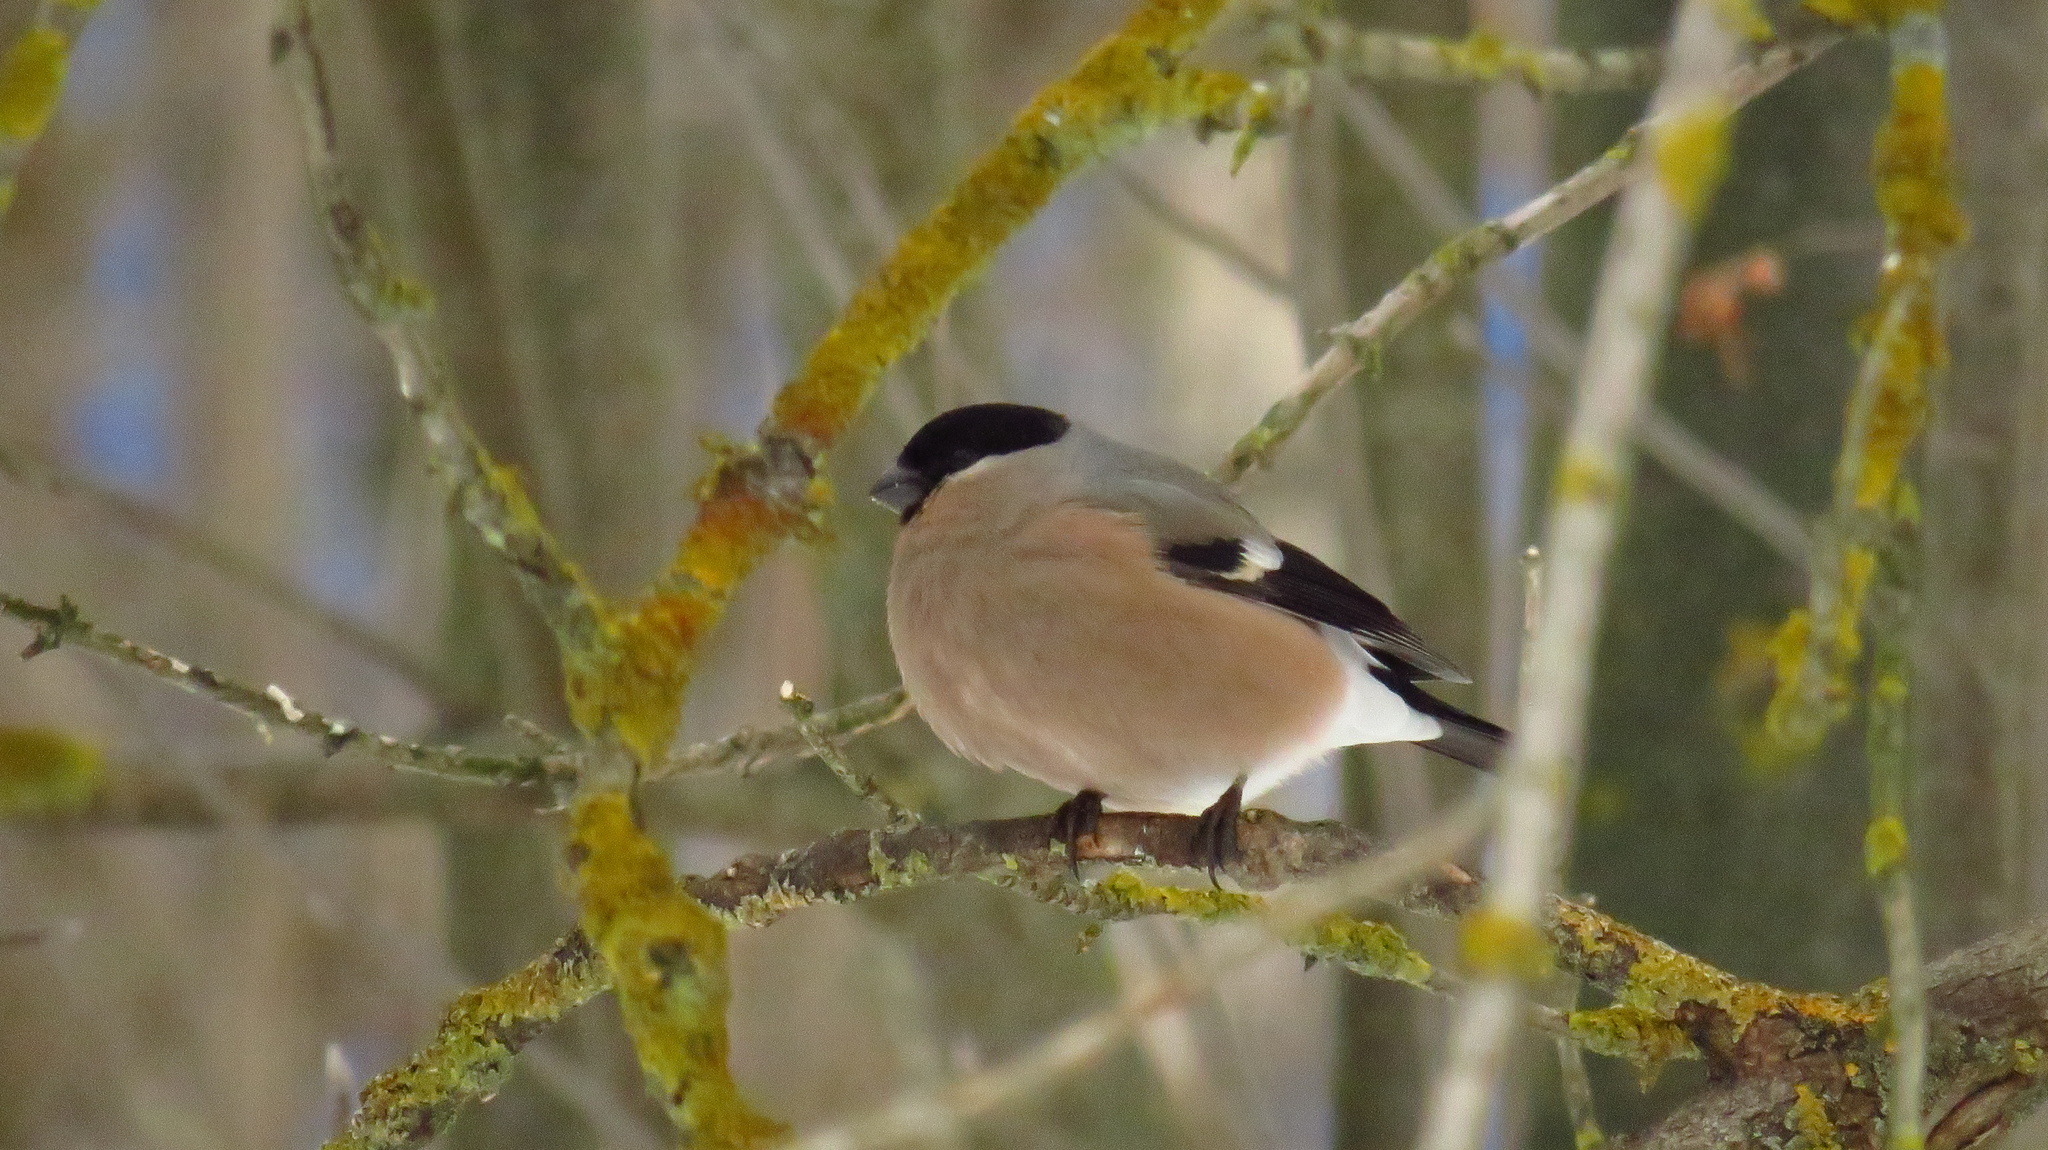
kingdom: Animalia
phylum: Chordata
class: Aves
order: Passeriformes
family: Fringillidae
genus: Pyrrhula
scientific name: Pyrrhula pyrrhula
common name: Eurasian bullfinch
